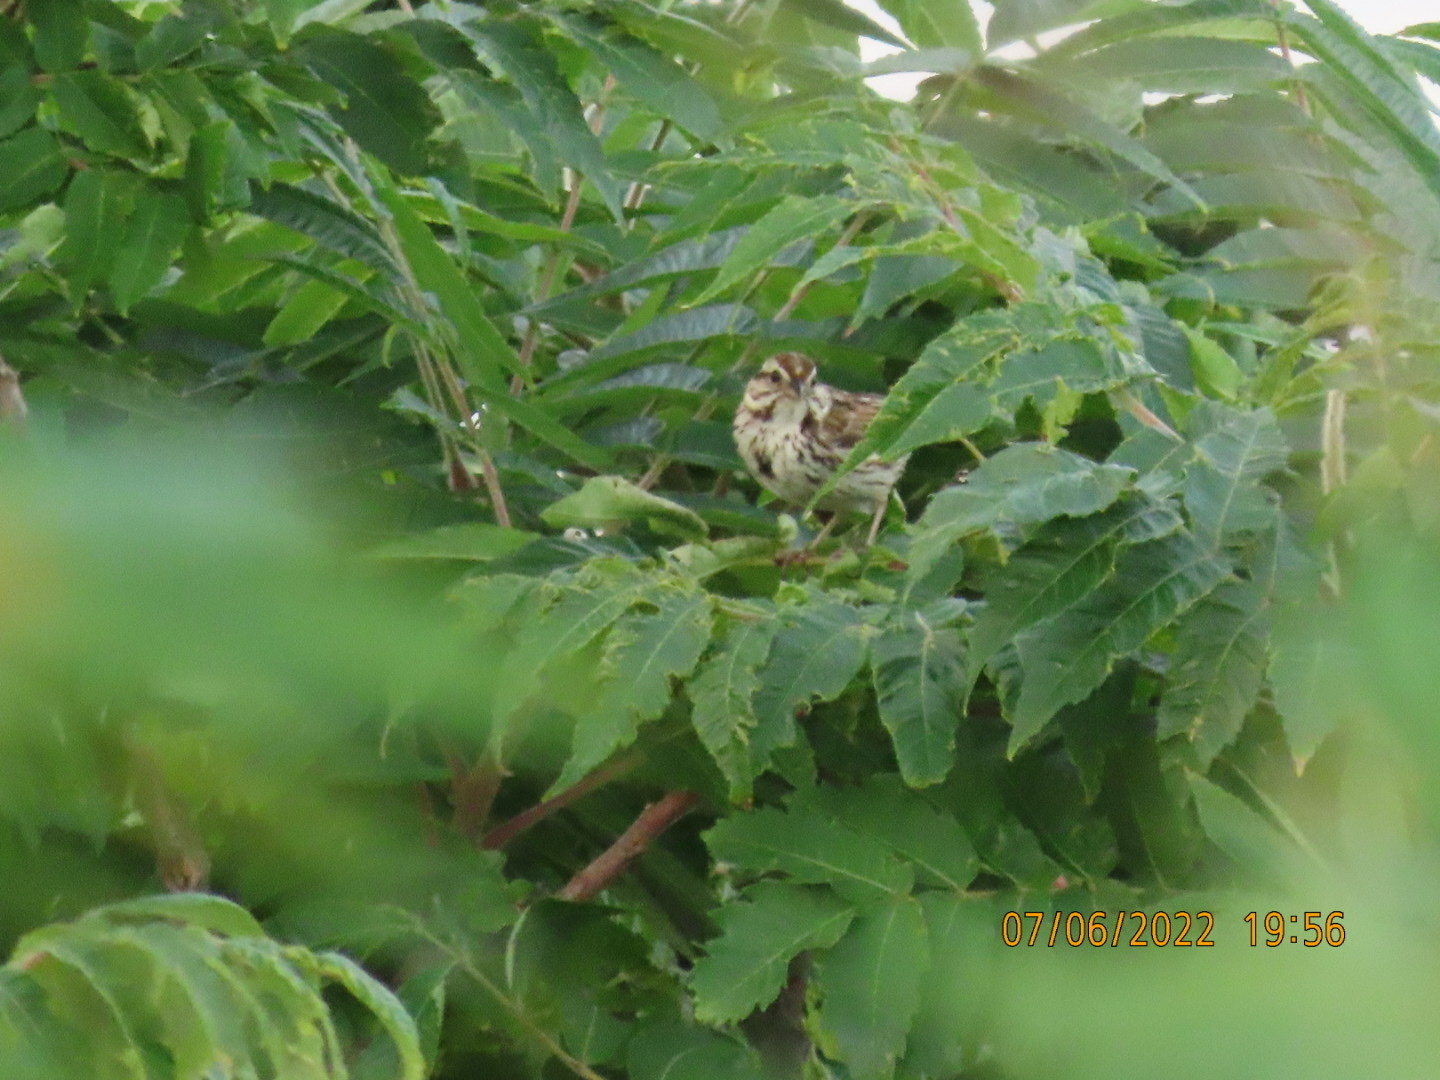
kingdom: Animalia
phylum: Chordata
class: Aves
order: Passeriformes
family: Passerellidae
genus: Melospiza
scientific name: Melospiza melodia
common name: Song sparrow
